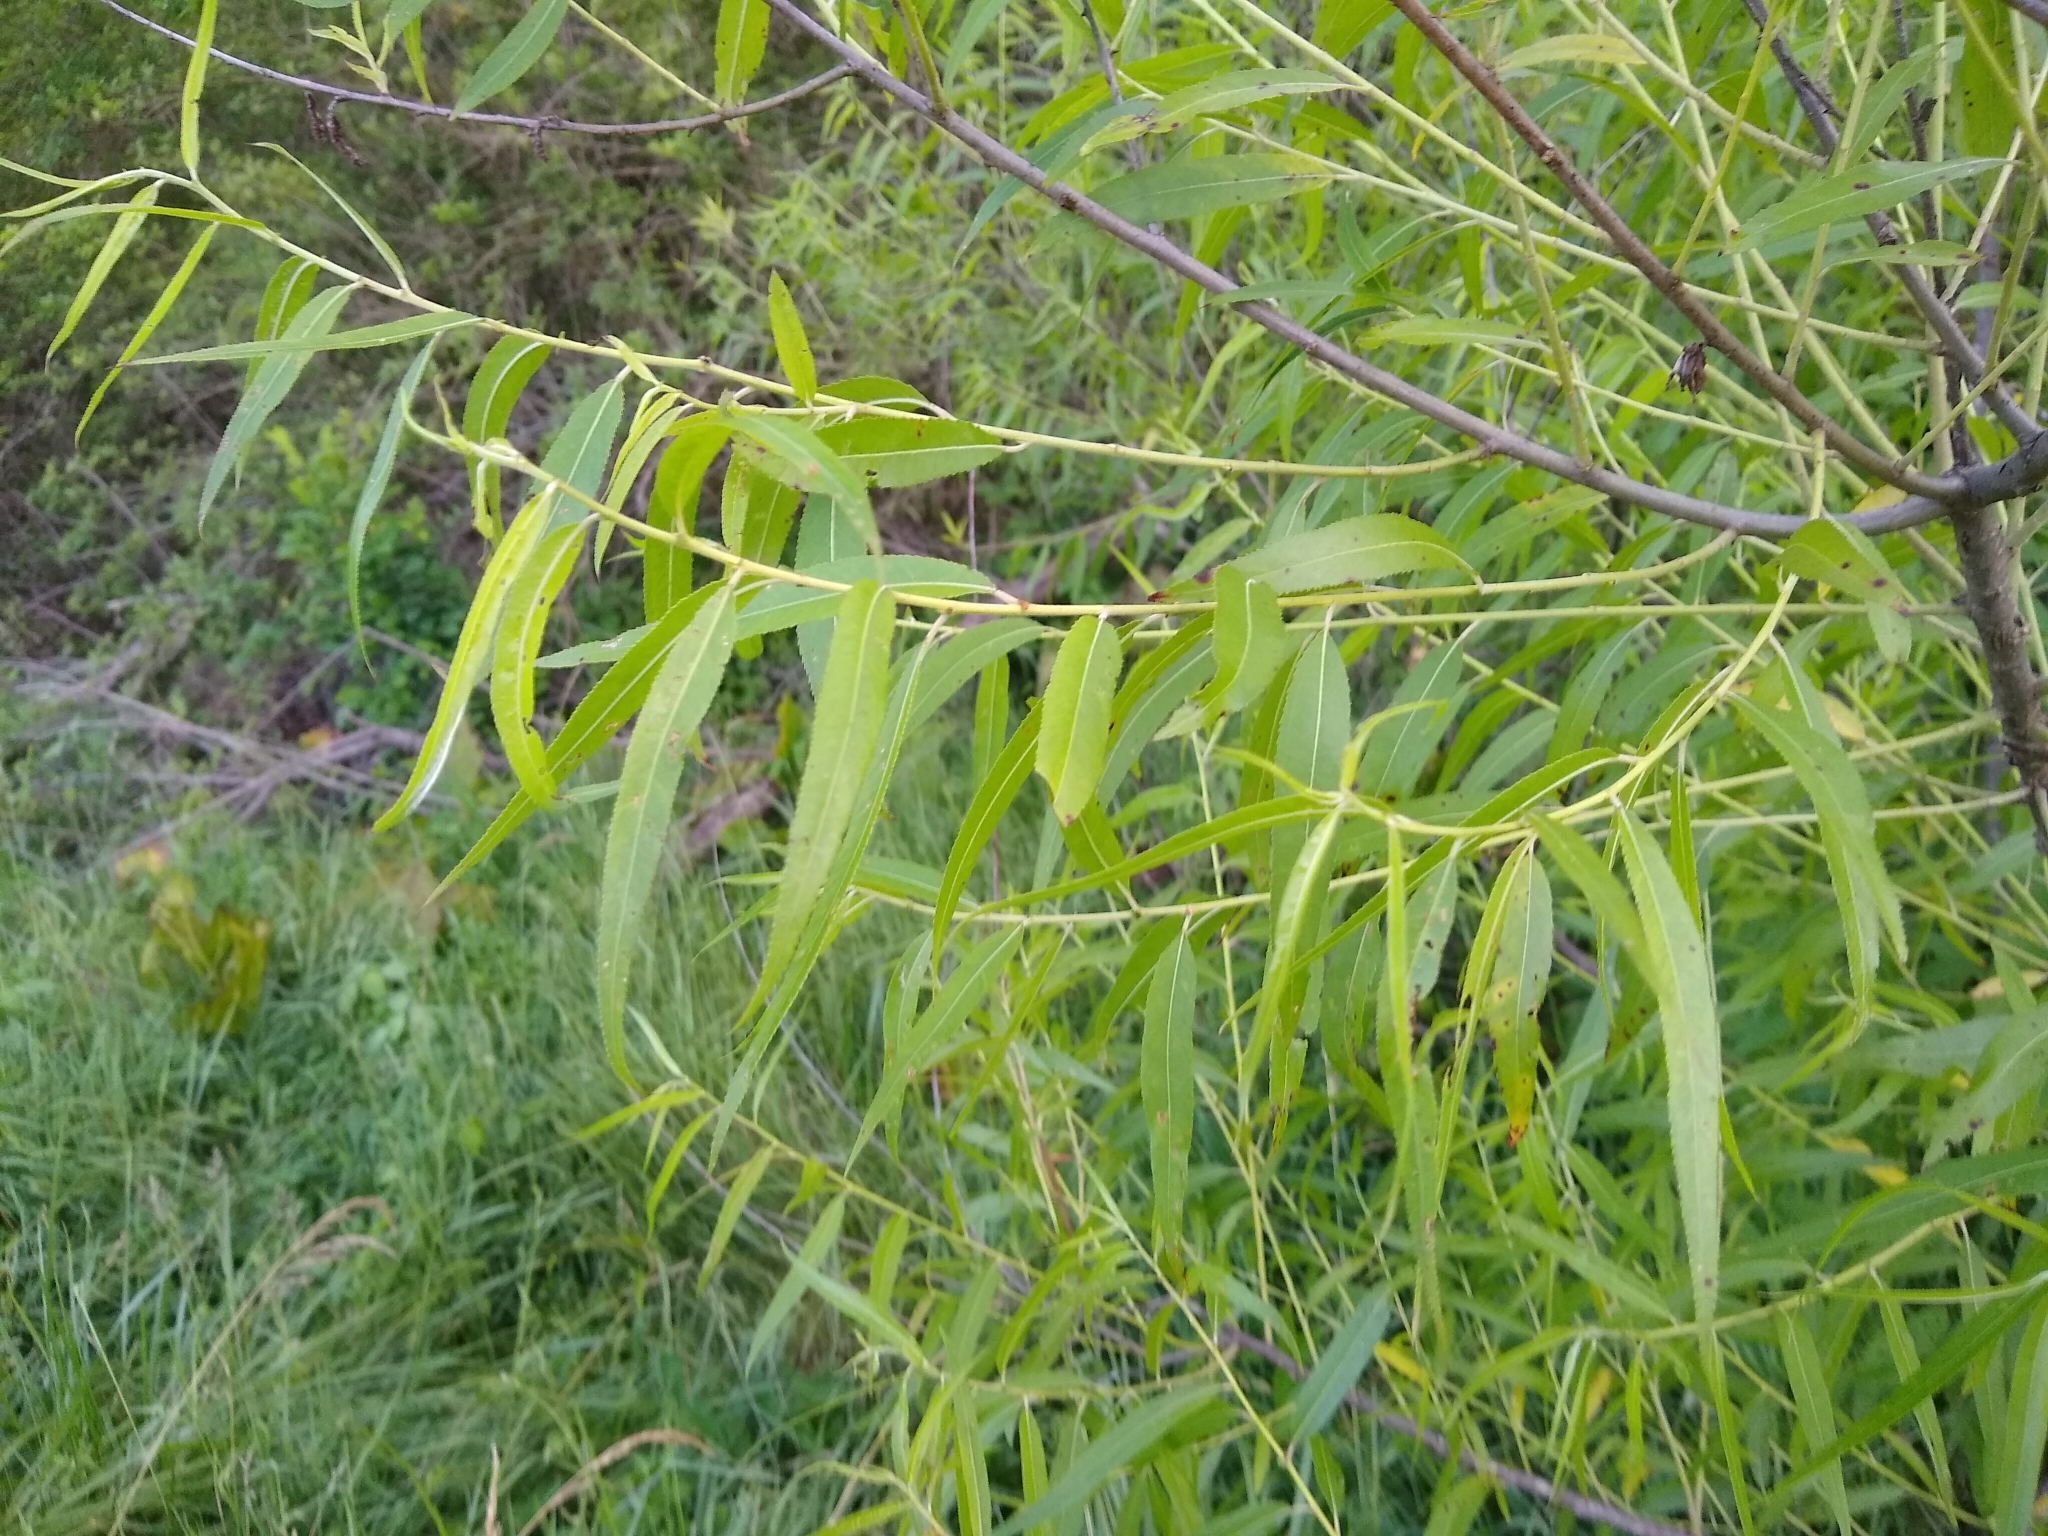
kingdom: Plantae
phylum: Tracheophyta
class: Magnoliopsida
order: Malpighiales
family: Salicaceae
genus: Salix
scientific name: Salix nigra
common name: Black willow
